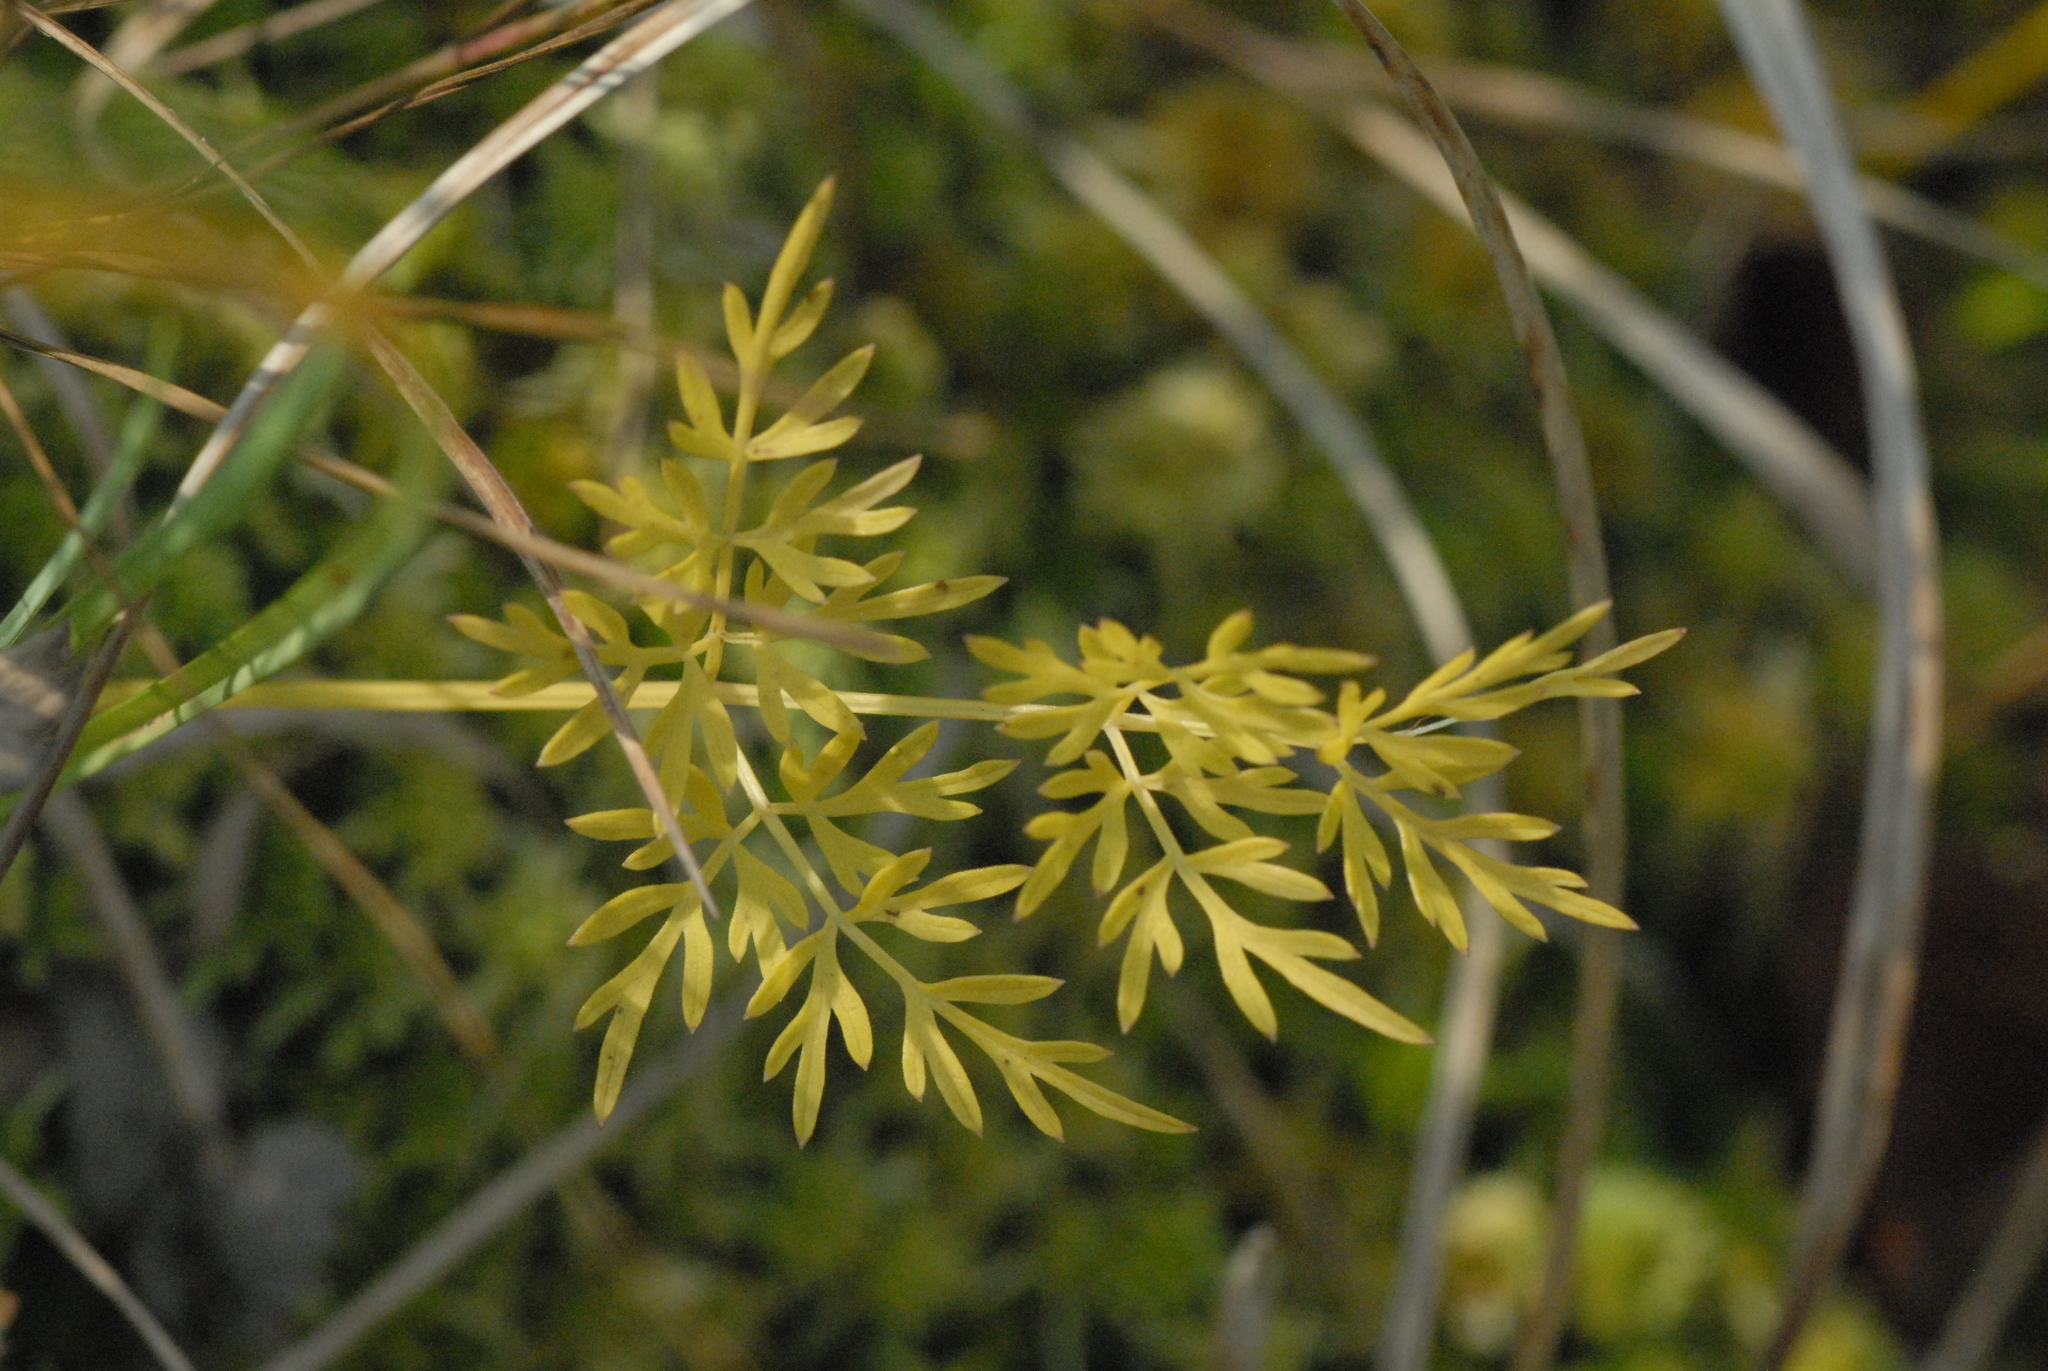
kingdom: Plantae
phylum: Tracheophyta
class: Magnoliopsida
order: Apiales
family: Apiaceae
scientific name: Apiaceae
